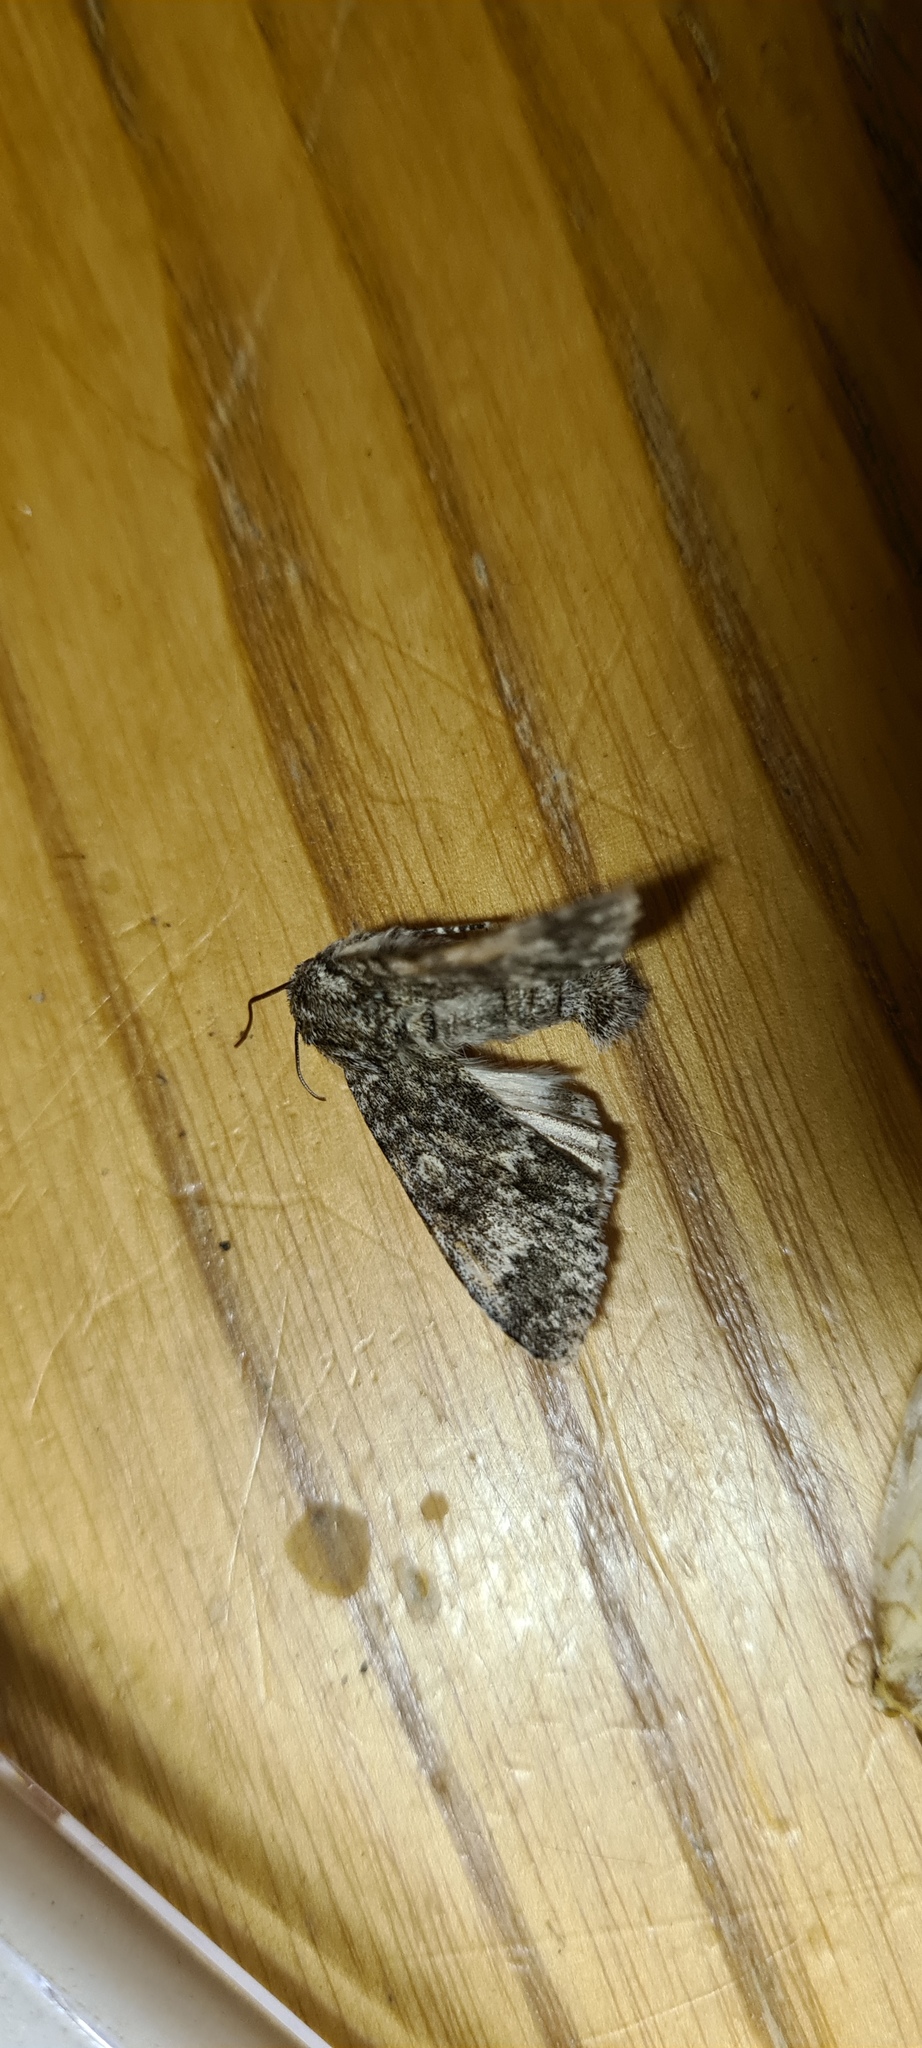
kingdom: Animalia
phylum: Arthropoda
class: Insecta
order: Lepidoptera
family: Noctuidae
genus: Acronicta
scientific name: Acronicta megacephala
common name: Poplar grey
